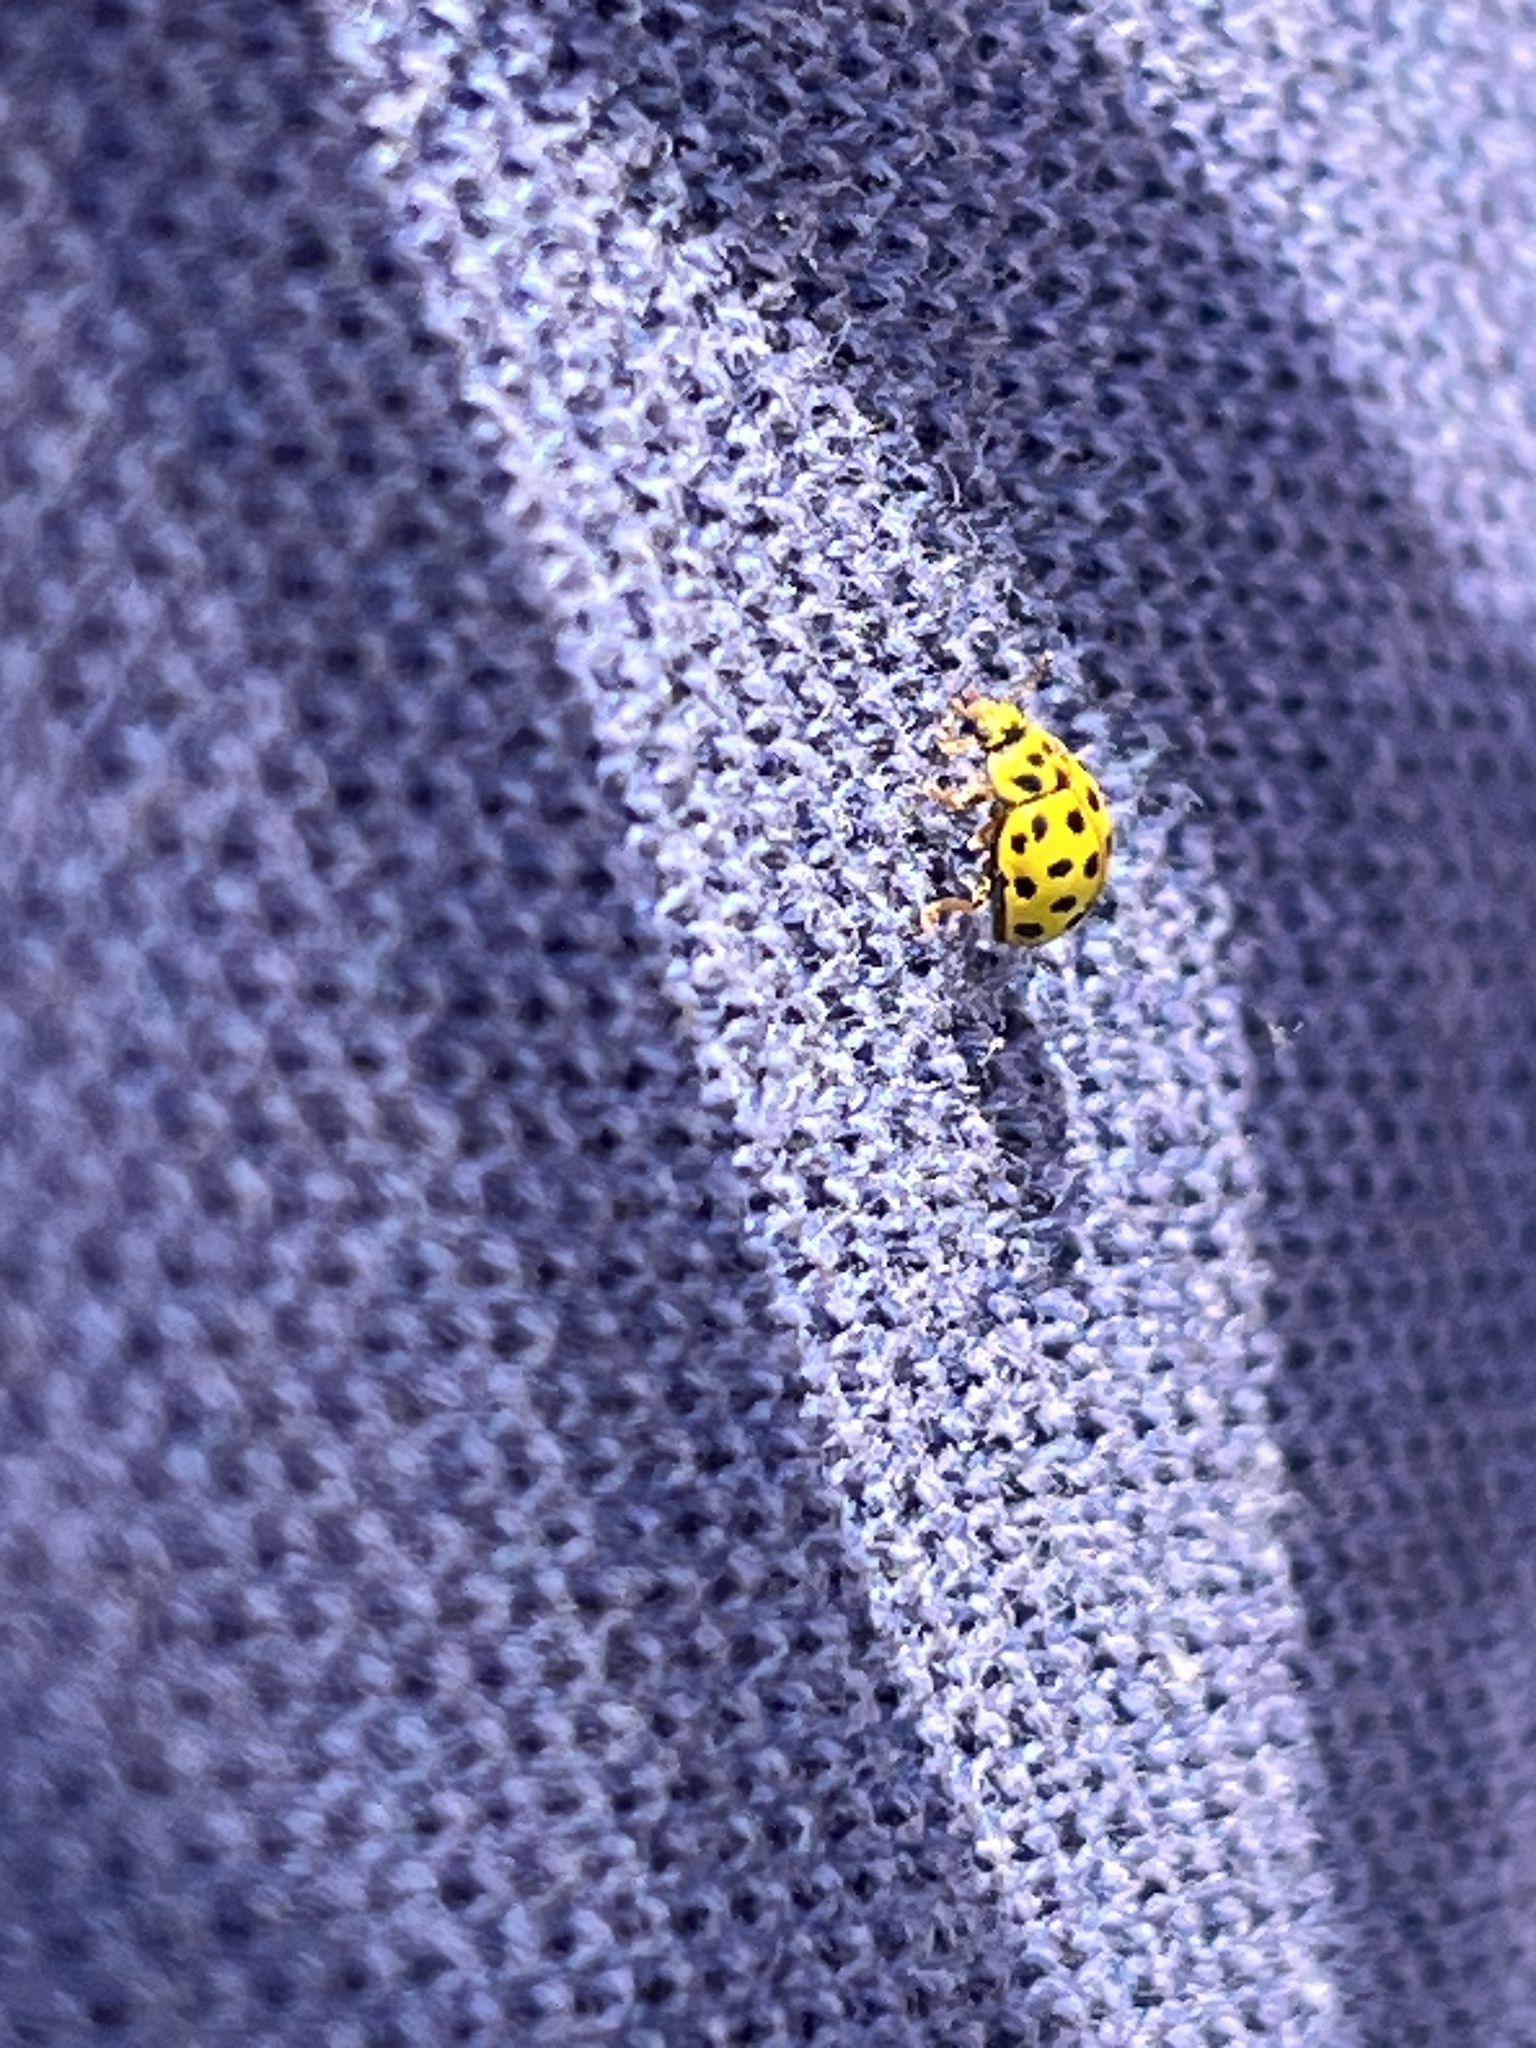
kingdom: Animalia
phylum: Arthropoda
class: Insecta
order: Coleoptera
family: Coccinellidae
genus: Psyllobora
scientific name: Psyllobora vigintiduopunctata
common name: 22-spot ladybird
